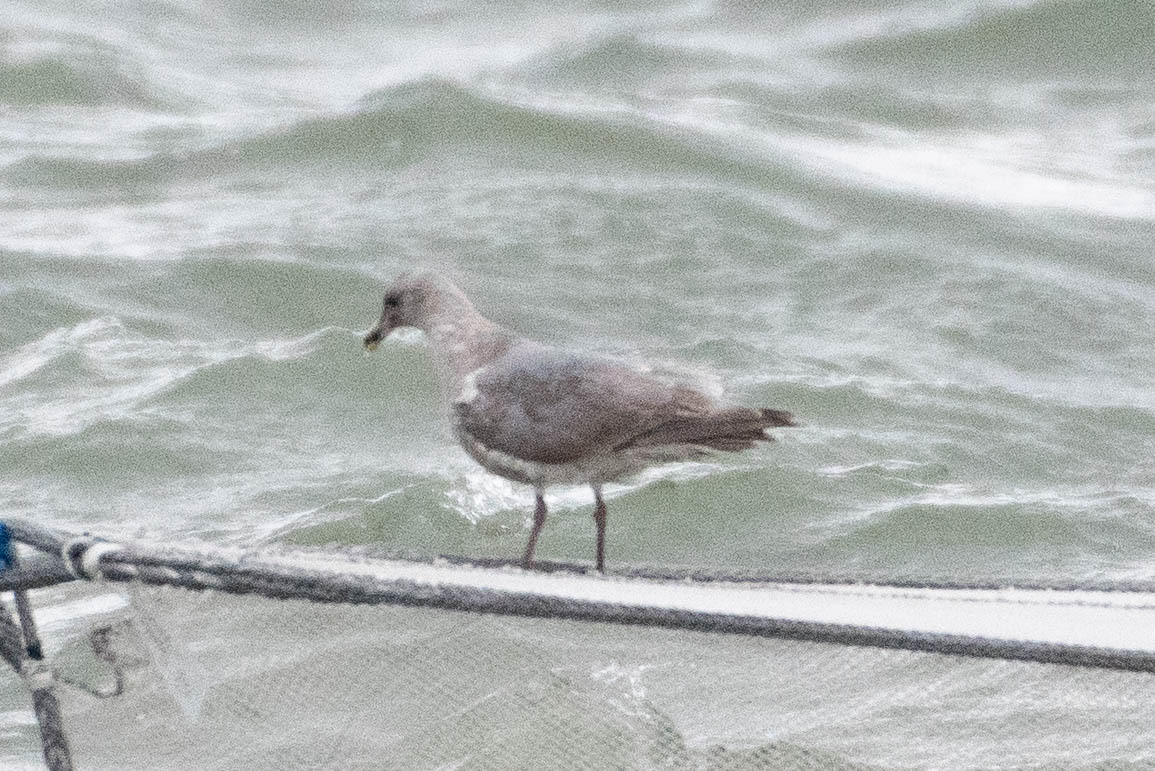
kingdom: Animalia
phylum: Chordata
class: Aves
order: Charadriiformes
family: Laridae
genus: Larus
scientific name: Larus
